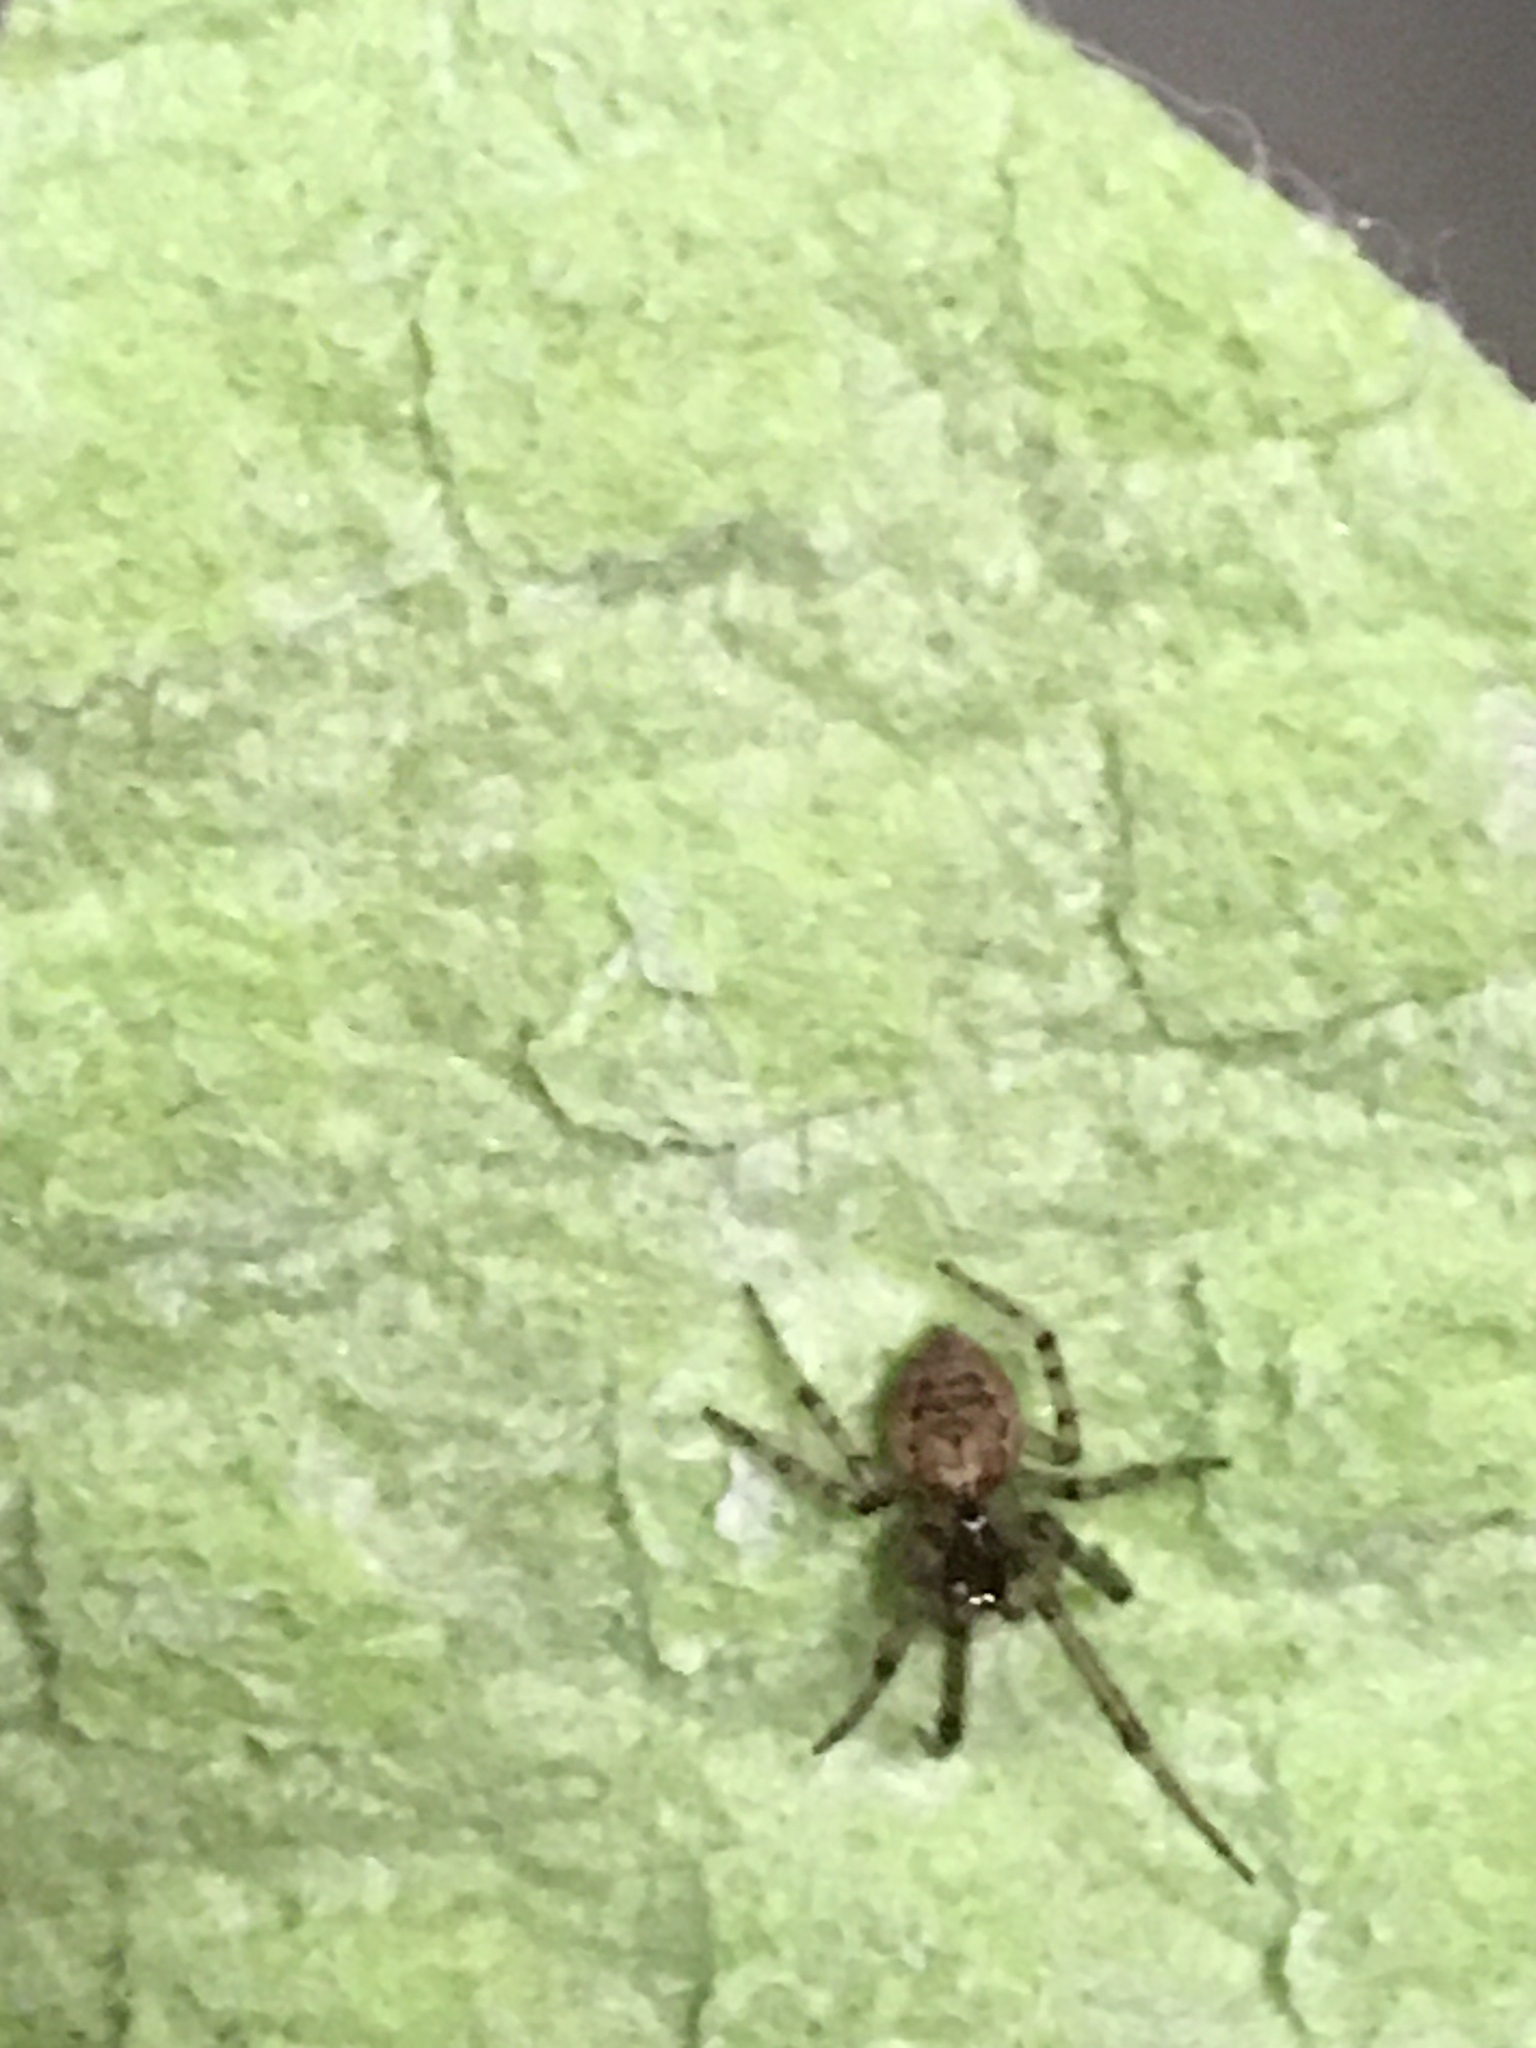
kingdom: Animalia
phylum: Arthropoda
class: Arachnida
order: Araneae
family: Araneidae
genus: Zygiella
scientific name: Zygiella x-notata
